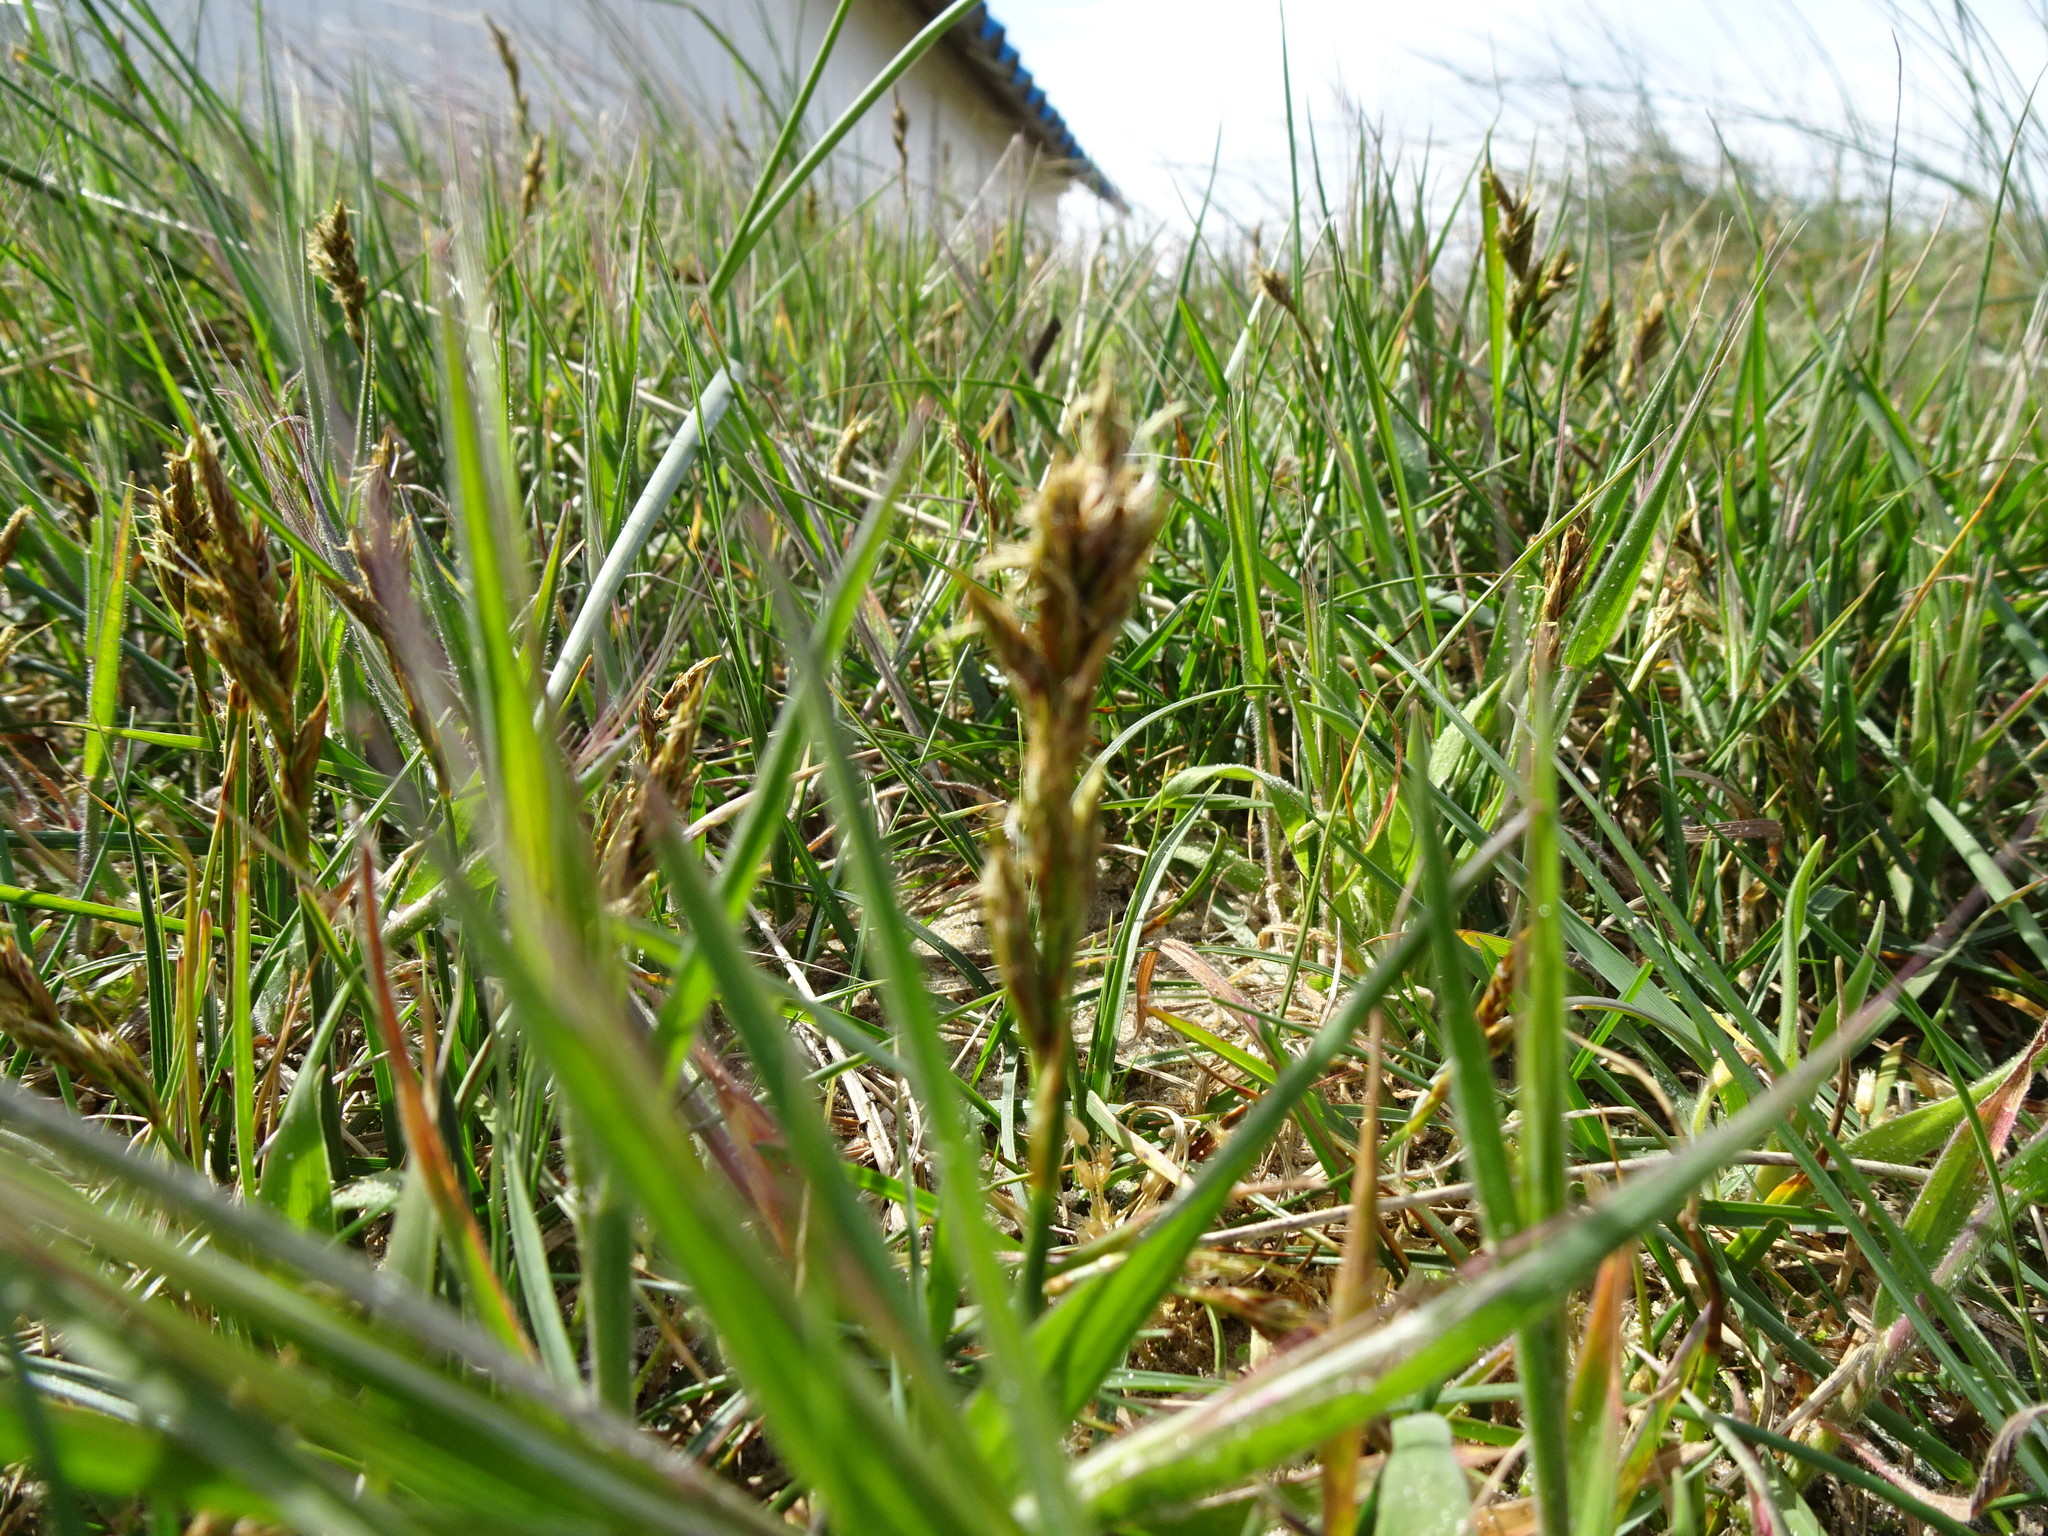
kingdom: Plantae
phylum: Tracheophyta
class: Liliopsida
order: Poales
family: Cyperaceae
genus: Carex
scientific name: Carex arenaria
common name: Sand sedge
